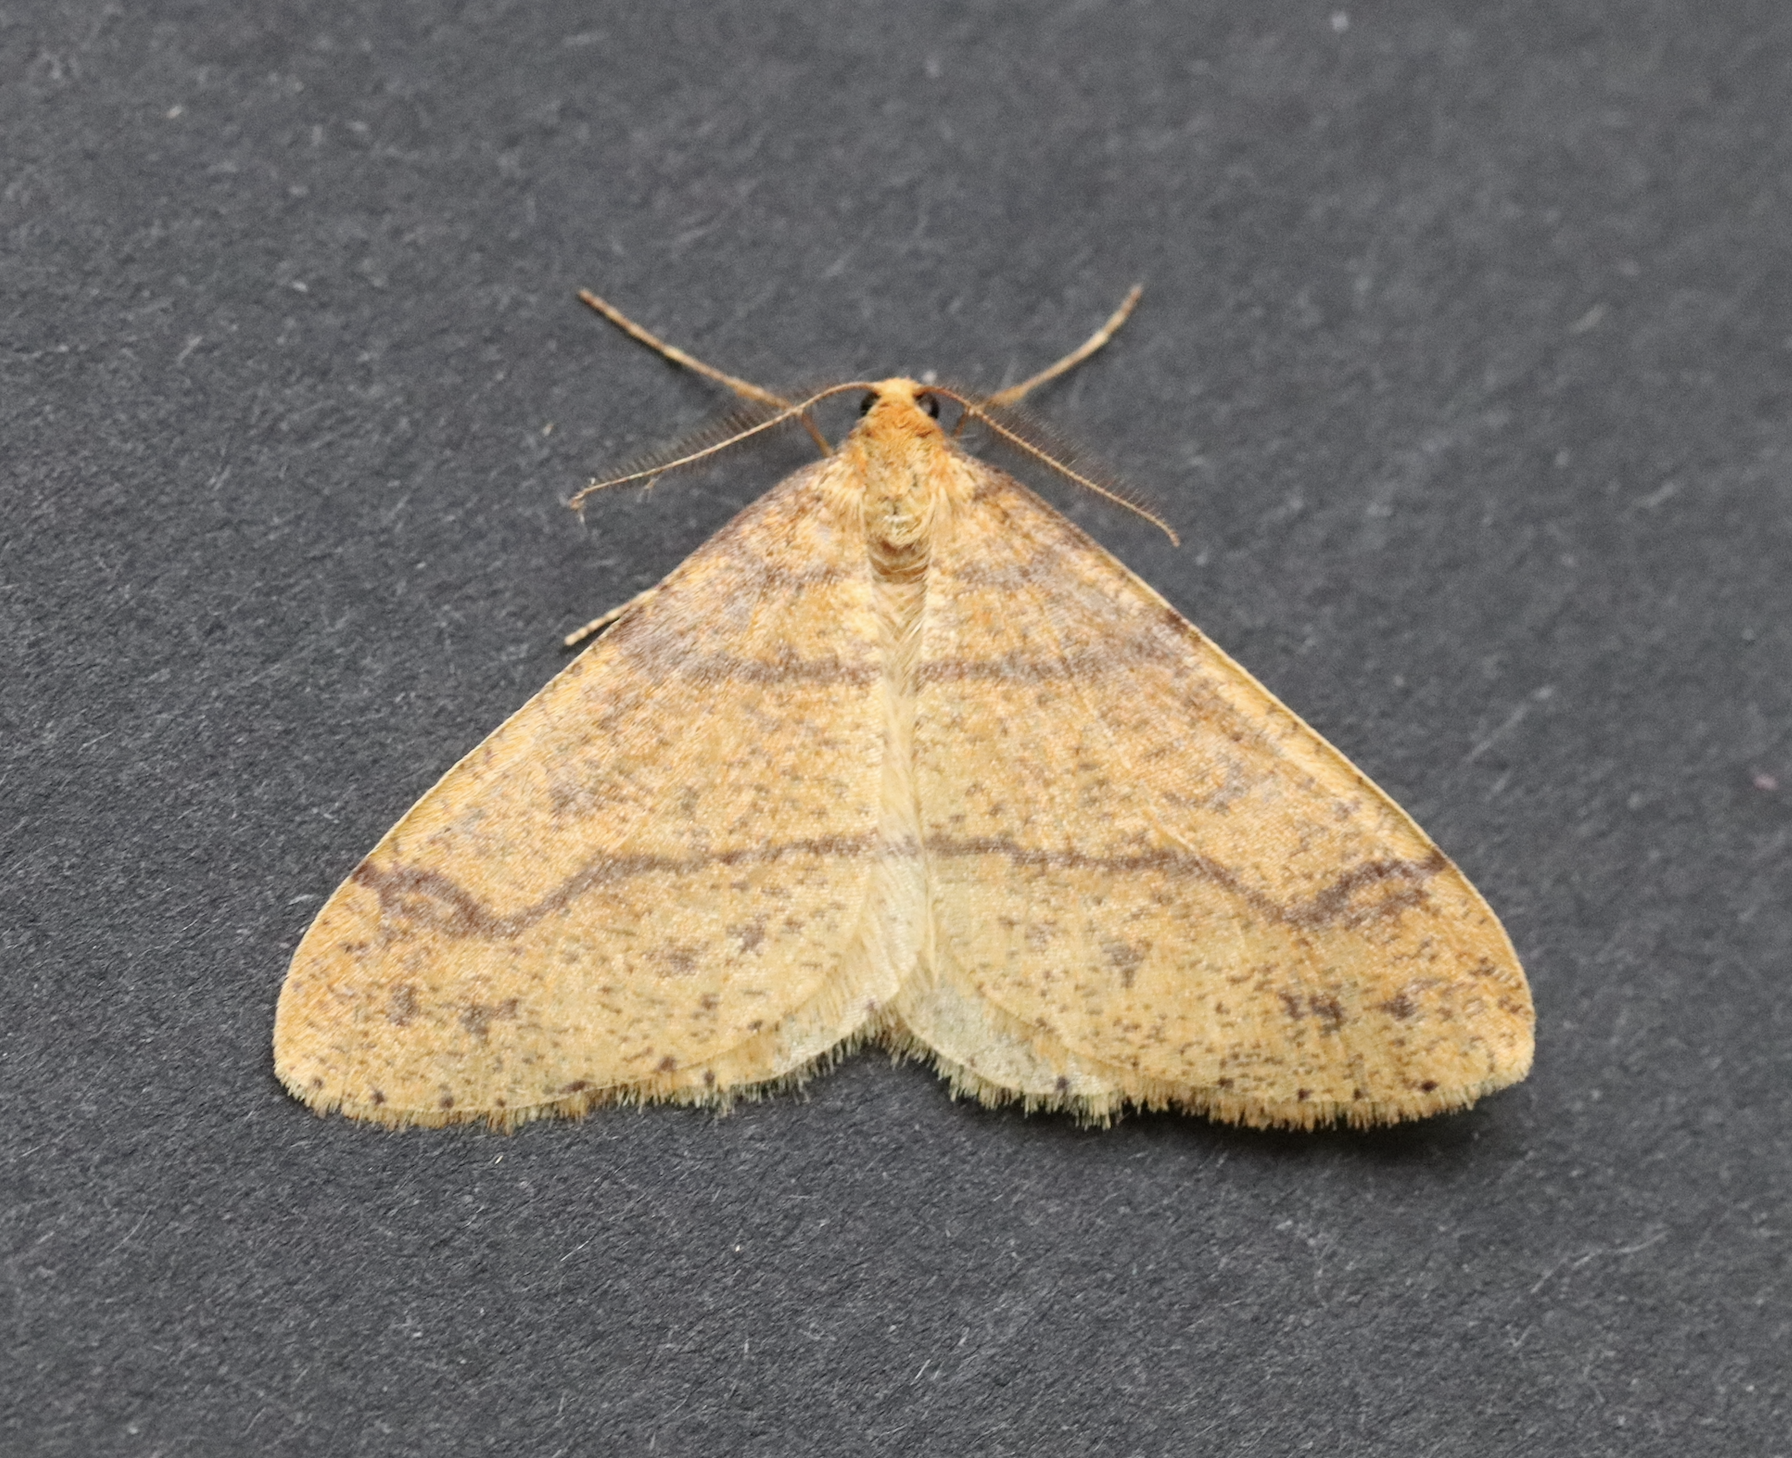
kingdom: Animalia
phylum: Arthropoda
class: Insecta
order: Lepidoptera
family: Geometridae
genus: Agriopis
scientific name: Agriopis aurantiaria
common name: Scarce umber
